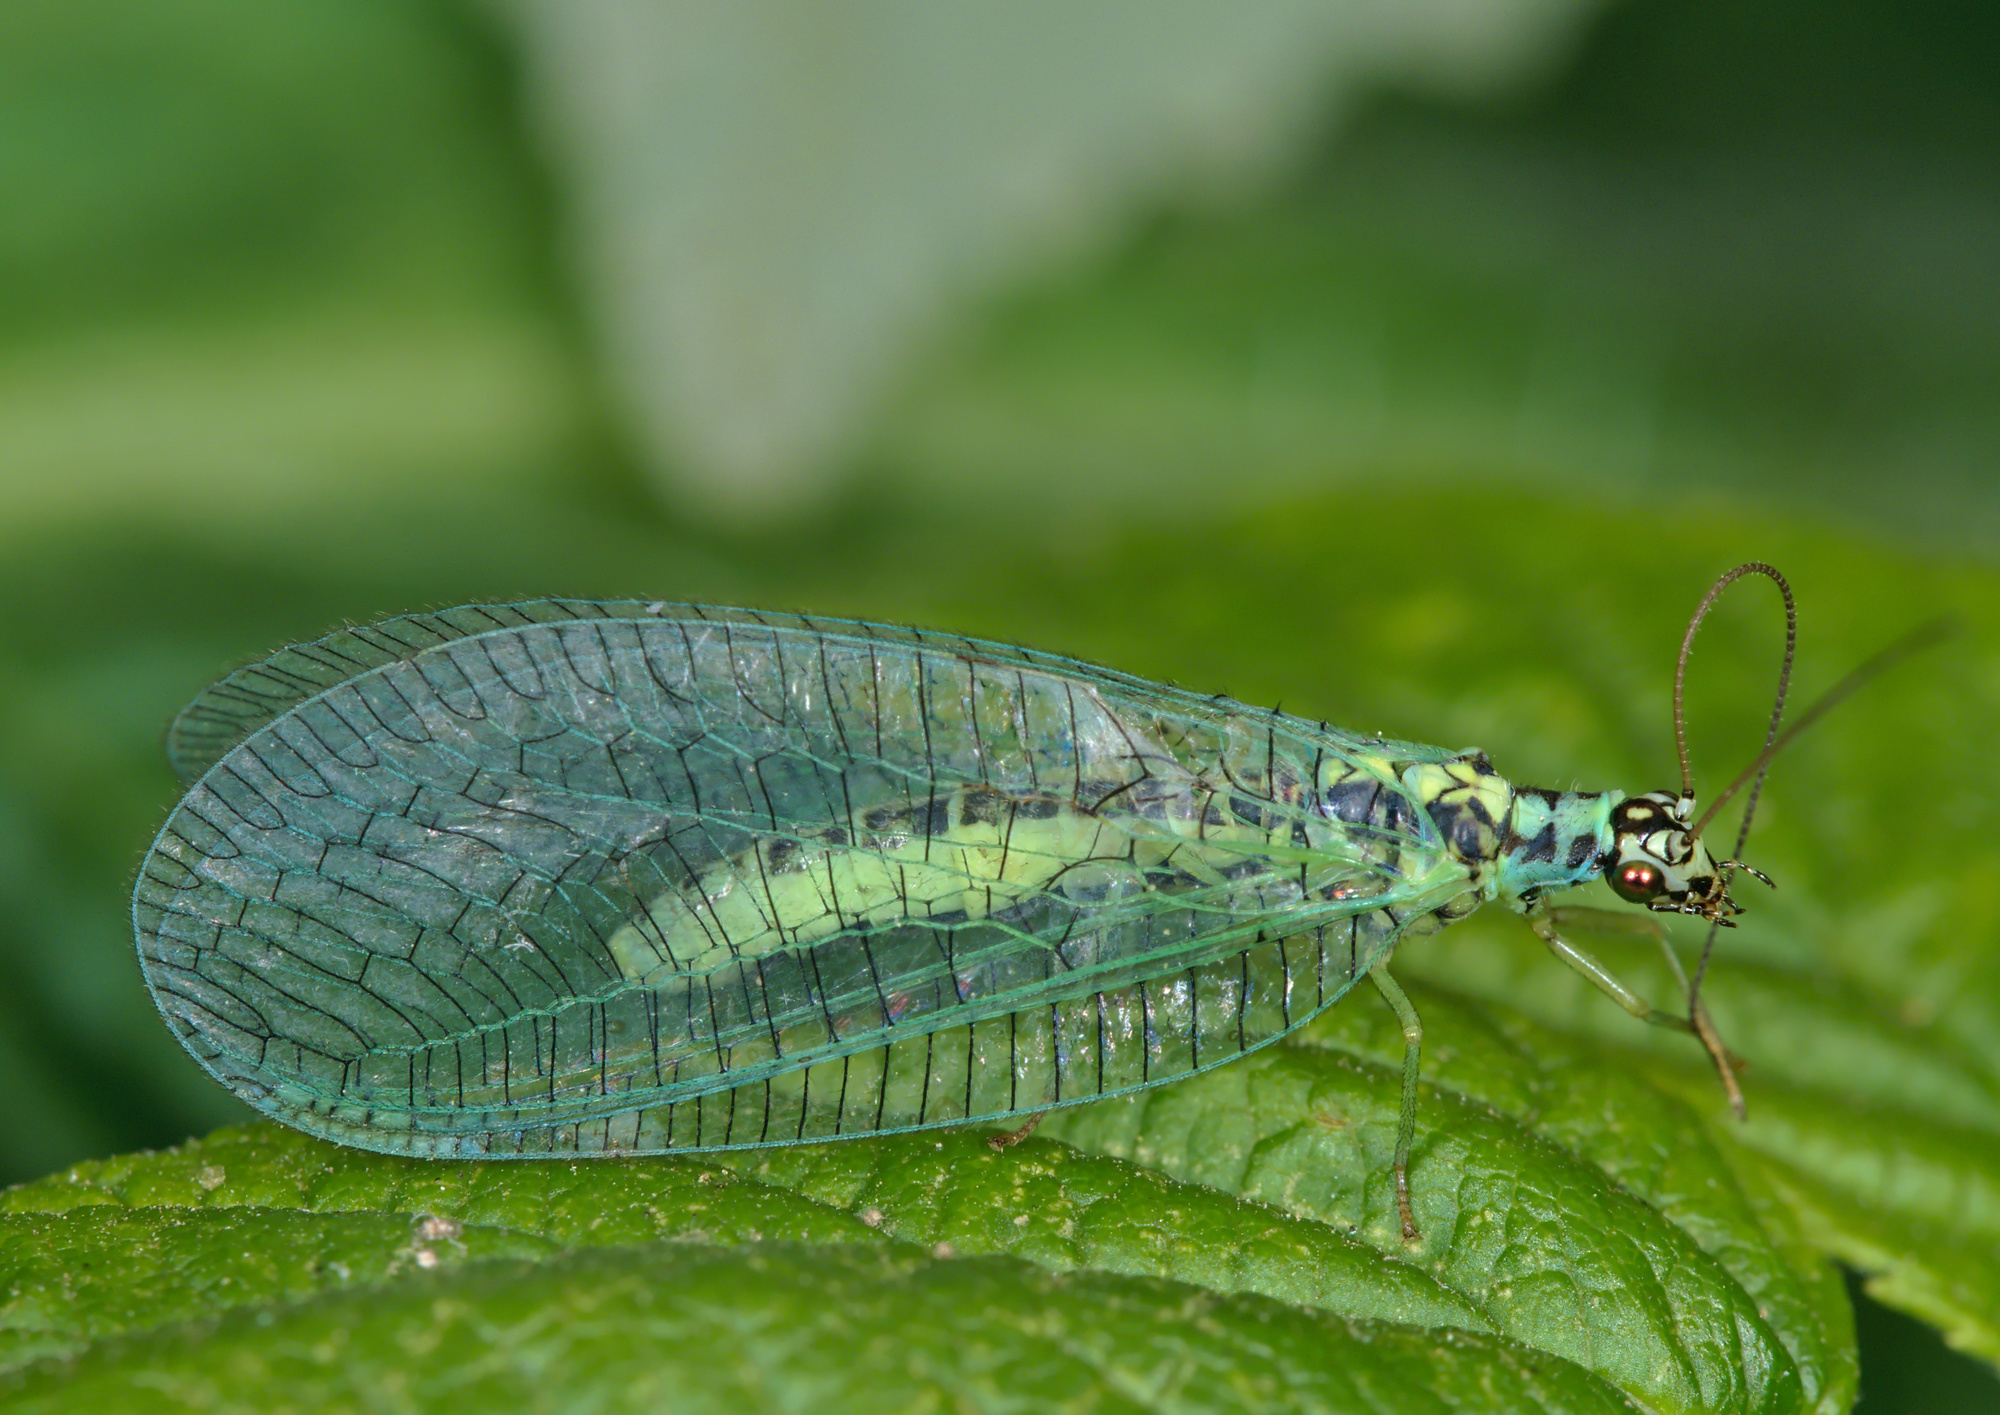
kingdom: Animalia
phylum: Arthropoda
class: Insecta
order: Neuroptera
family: Chrysopidae
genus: Chrysopa
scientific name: Chrysopa perla
